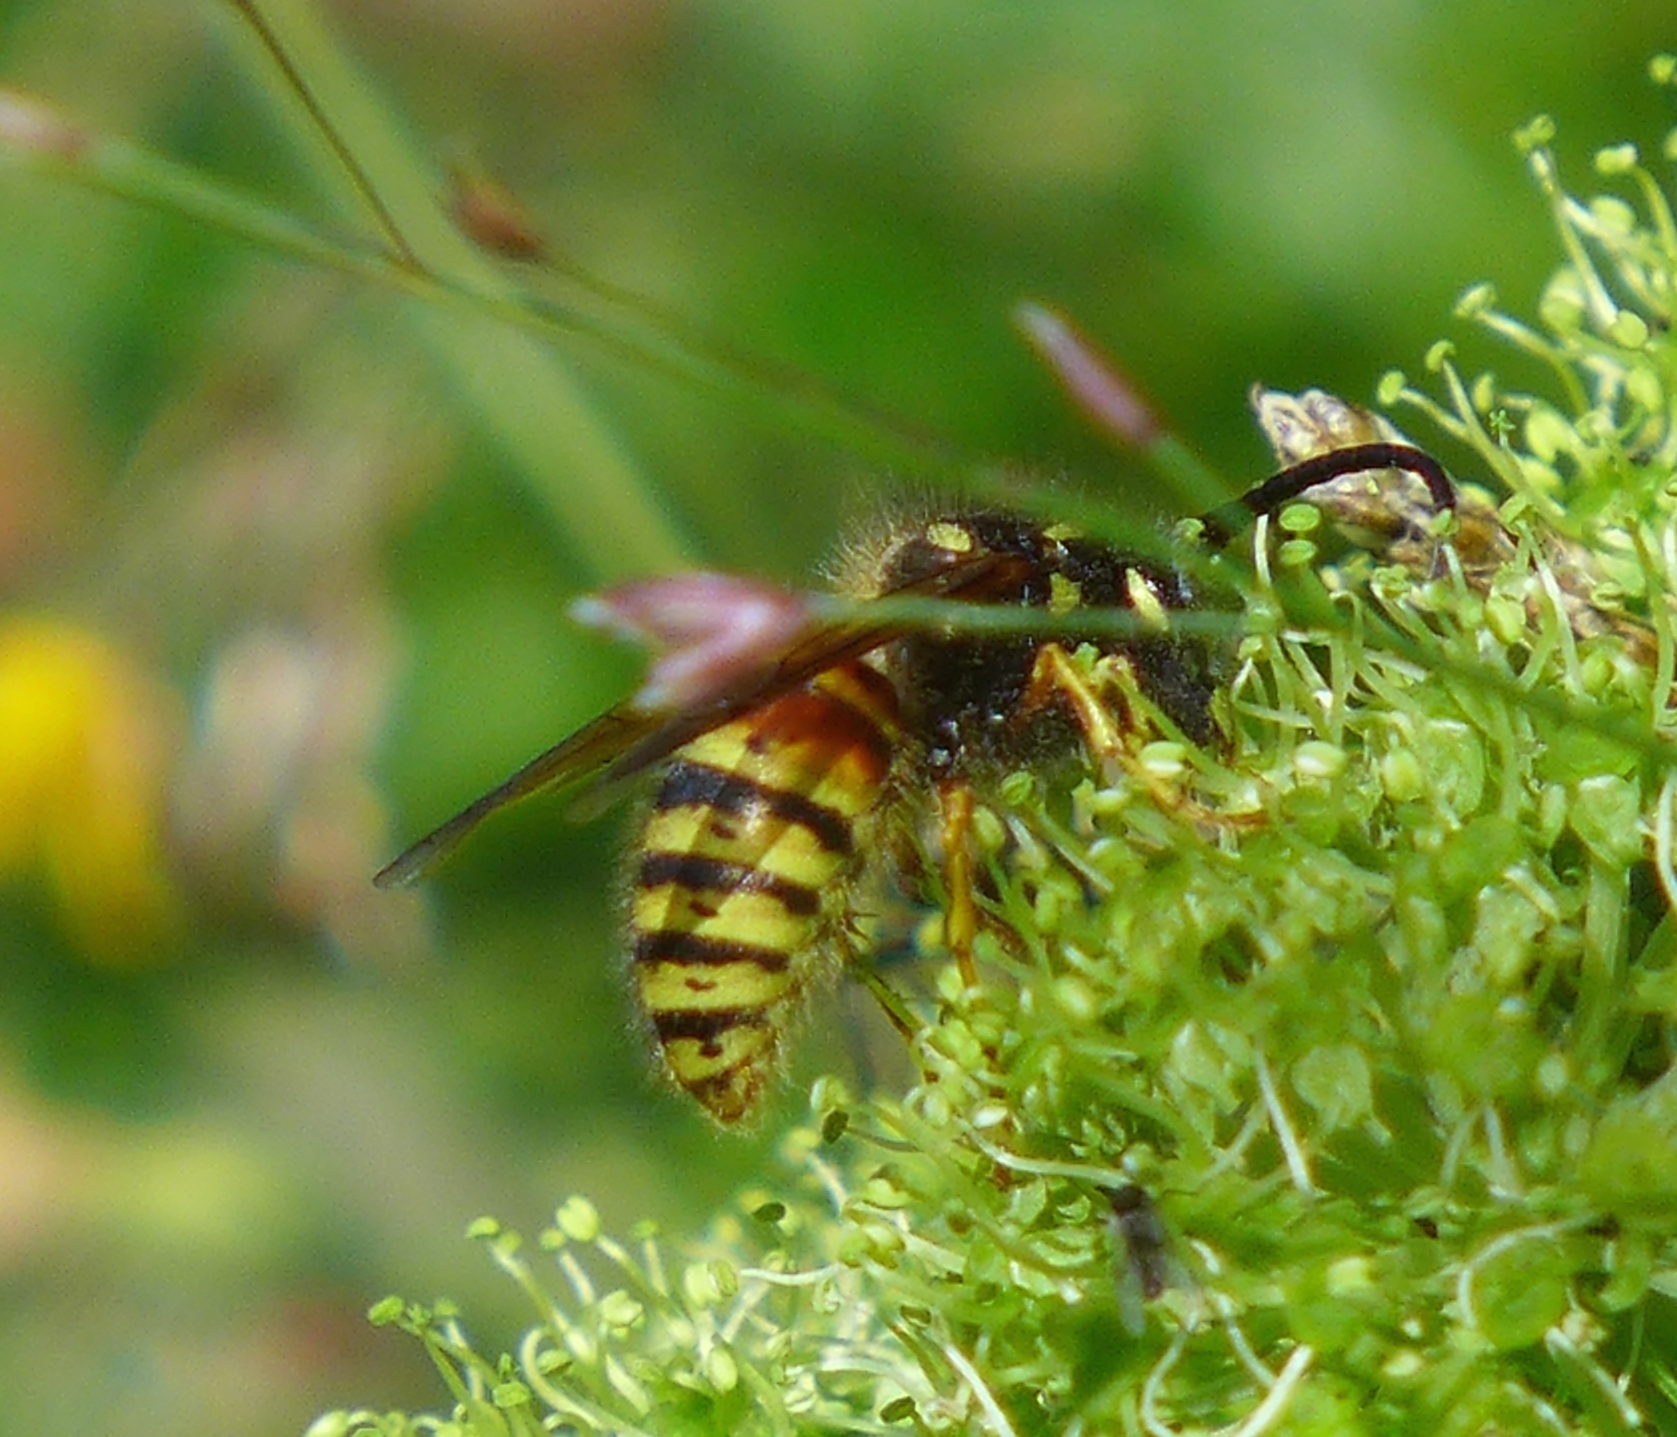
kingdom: Animalia
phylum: Arthropoda
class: Insecta
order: Hymenoptera
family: Vespidae
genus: Dolichovespula
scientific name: Dolichovespula norwegica
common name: Norwegian wasp
